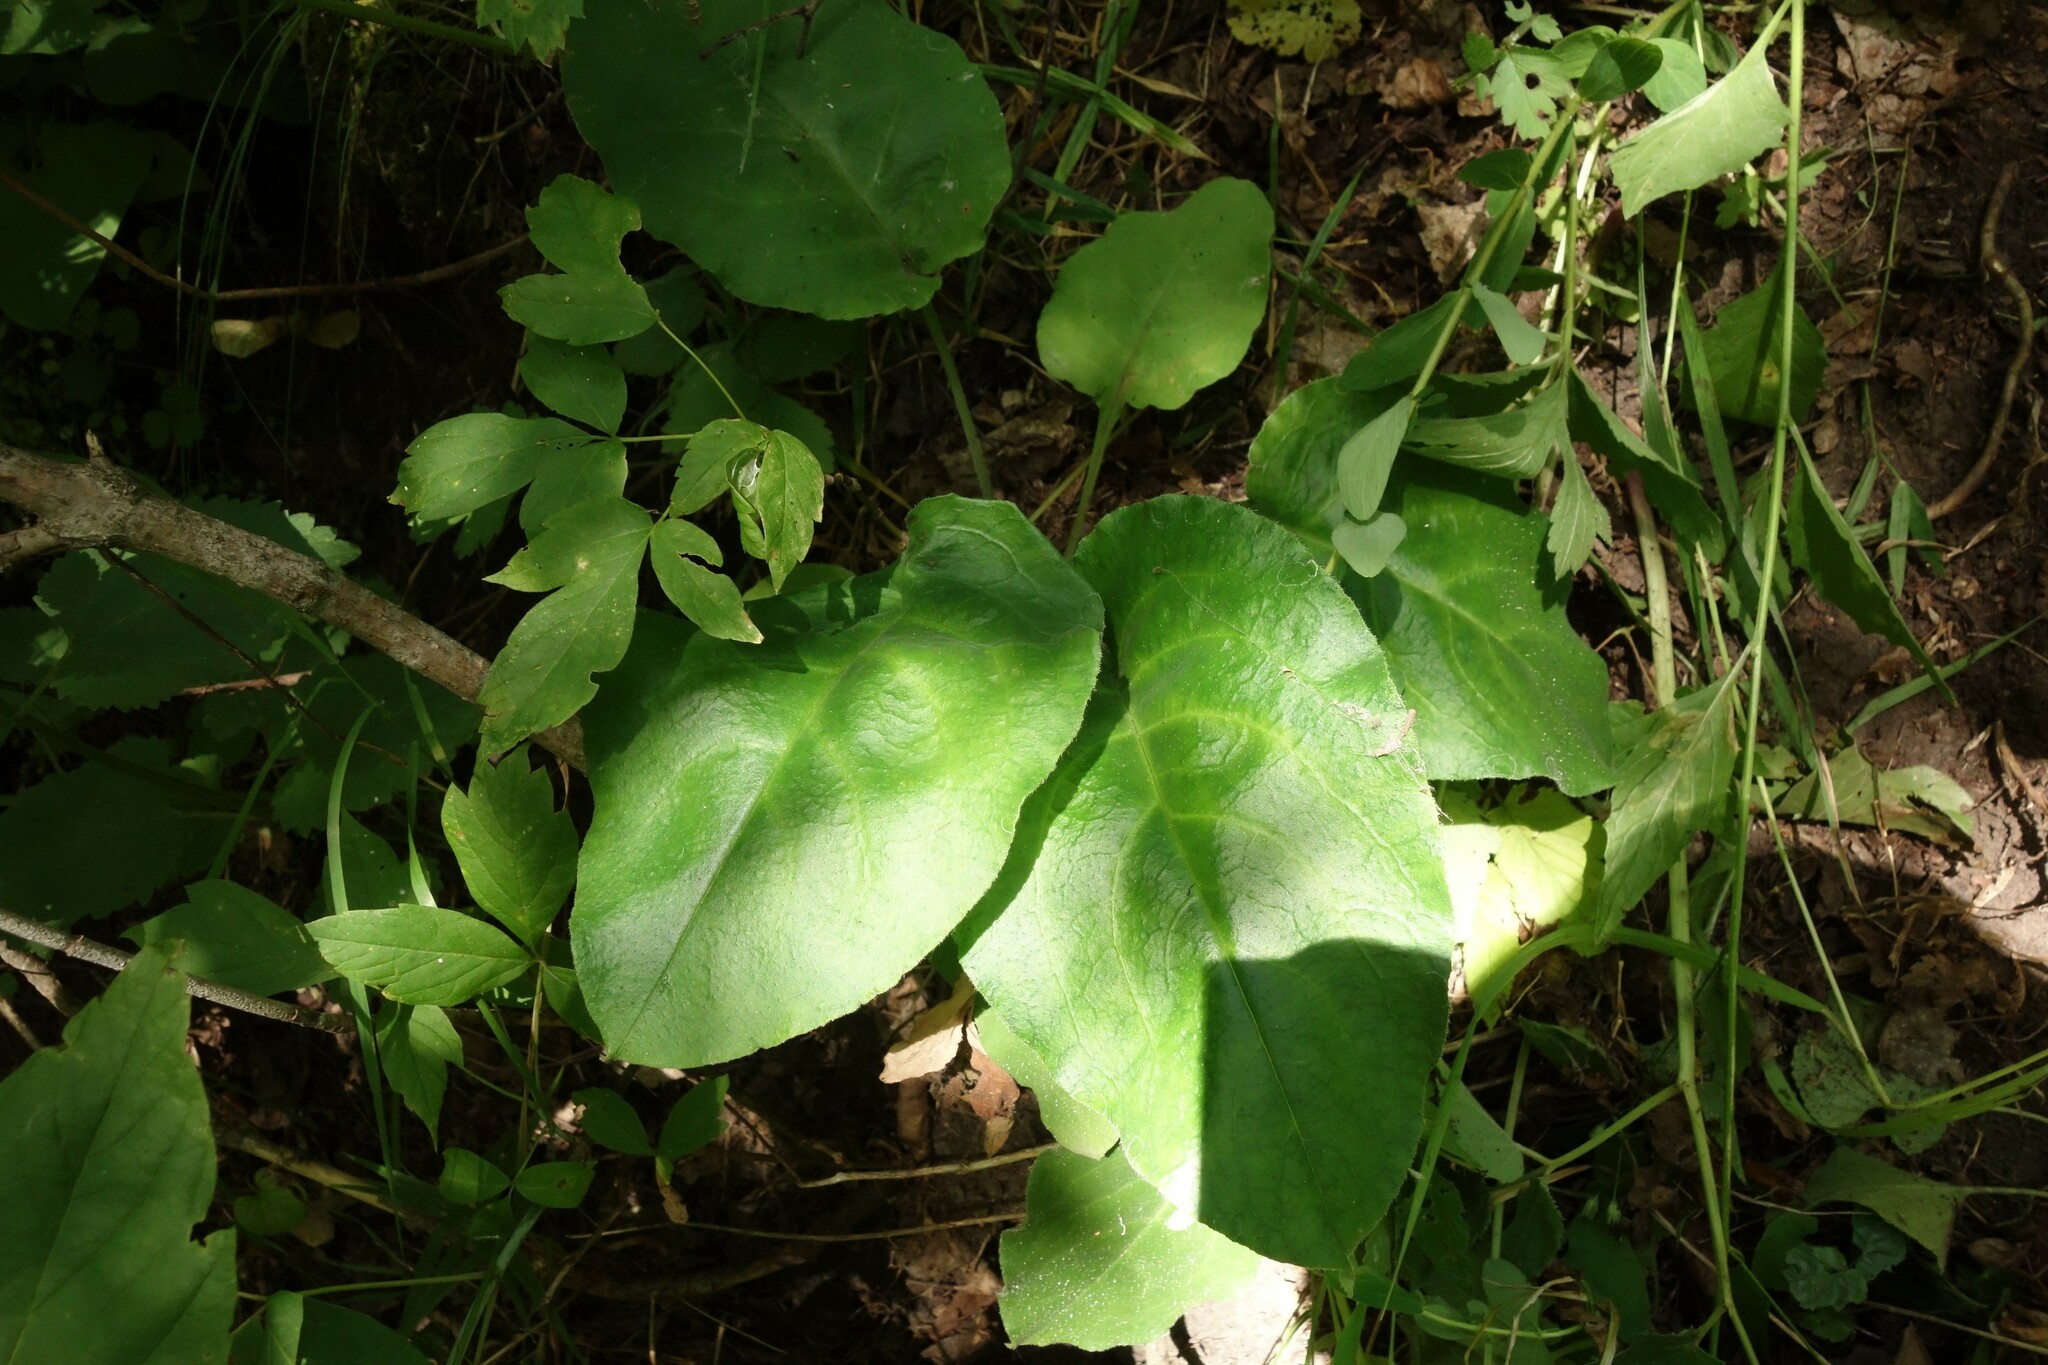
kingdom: Plantae
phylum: Tracheophyta
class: Magnoliopsida
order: Boraginales
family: Boraginaceae
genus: Pulmonaria
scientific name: Pulmonaria obscura
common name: Suffolk lungwort
